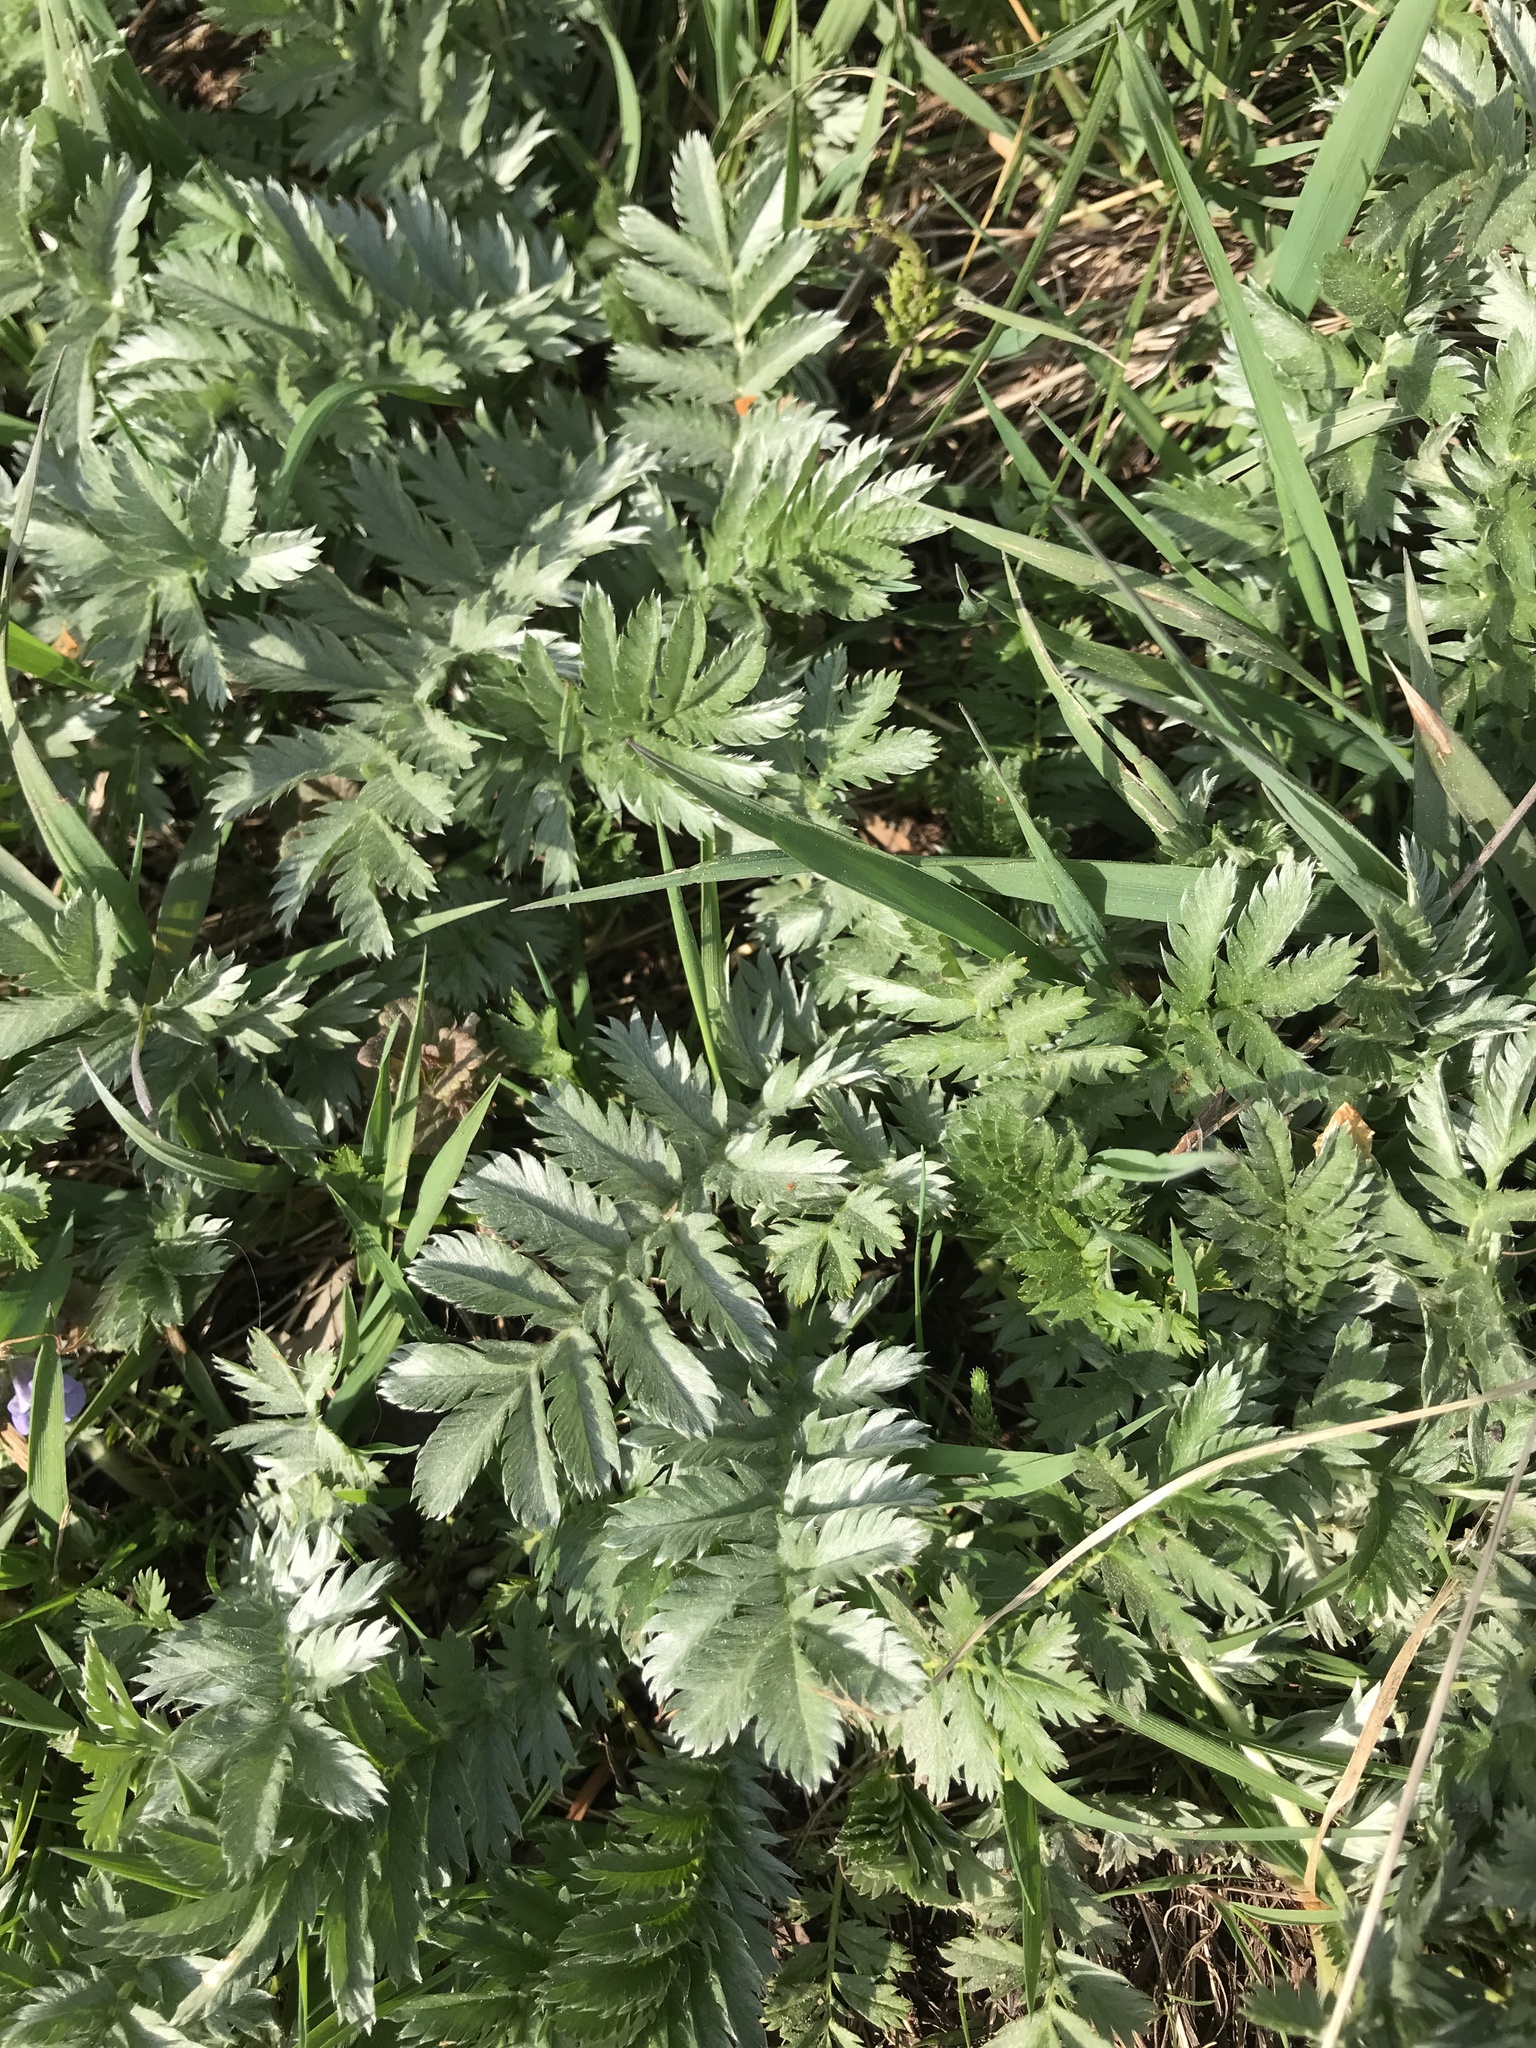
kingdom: Plantae
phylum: Tracheophyta
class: Magnoliopsida
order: Rosales
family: Rosaceae
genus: Argentina
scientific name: Argentina anserina
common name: Common silverweed
